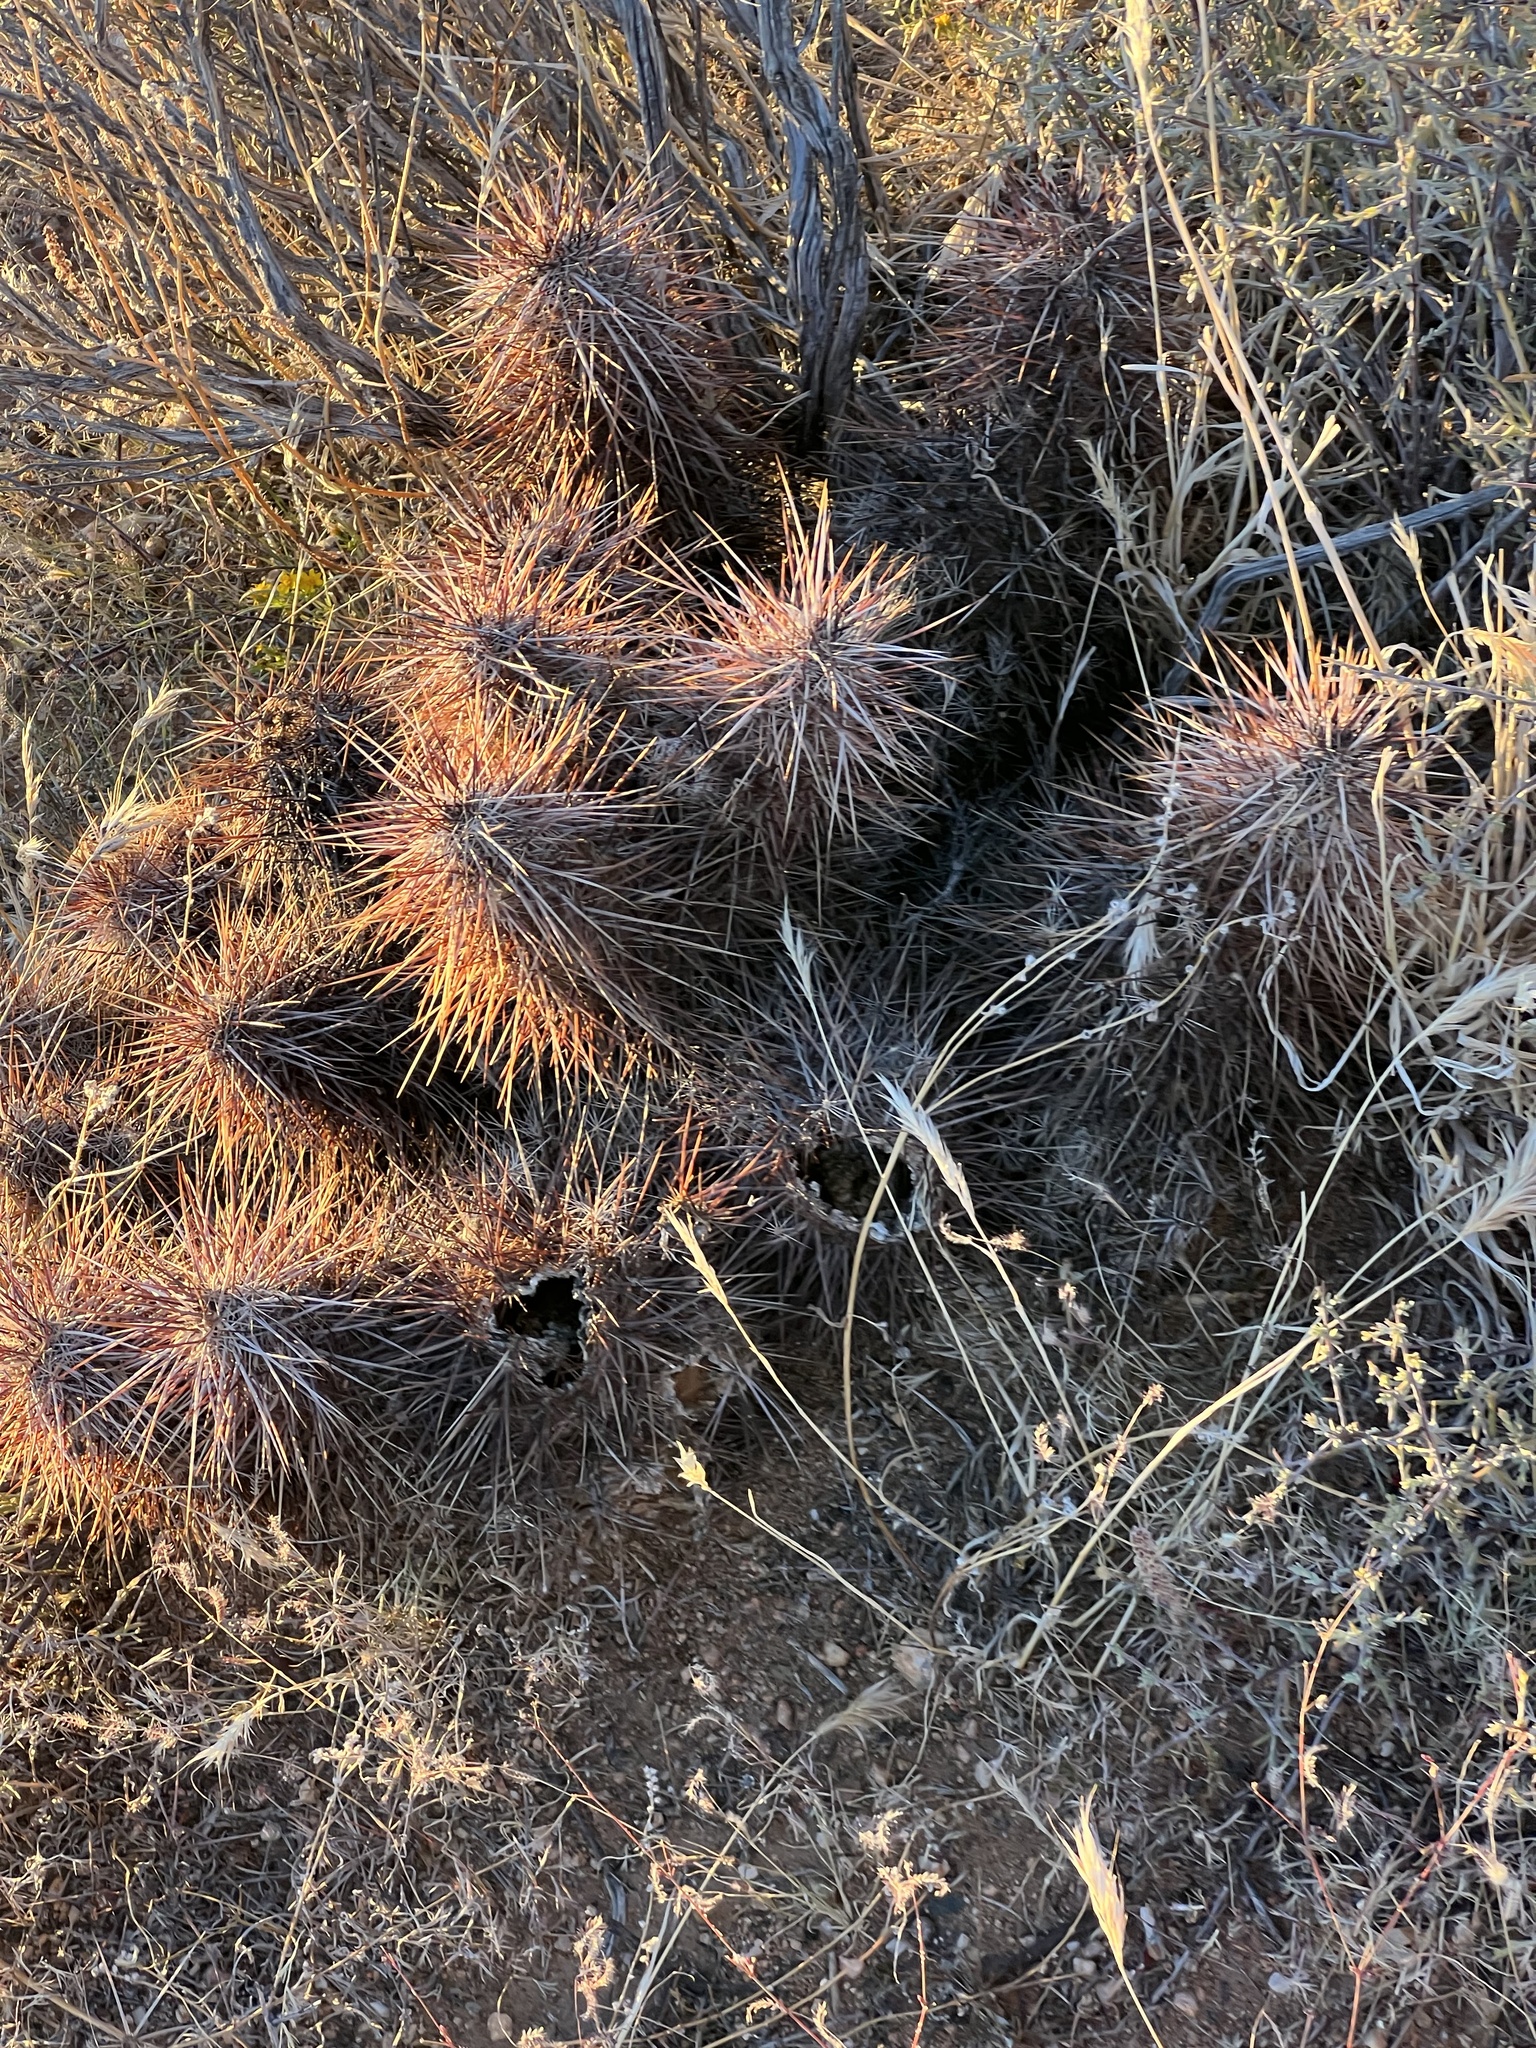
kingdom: Plantae
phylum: Tracheophyta
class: Magnoliopsida
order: Caryophyllales
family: Cactaceae
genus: Echinocereus
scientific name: Echinocereus engelmannii
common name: Engelmann's hedgehog cactus
